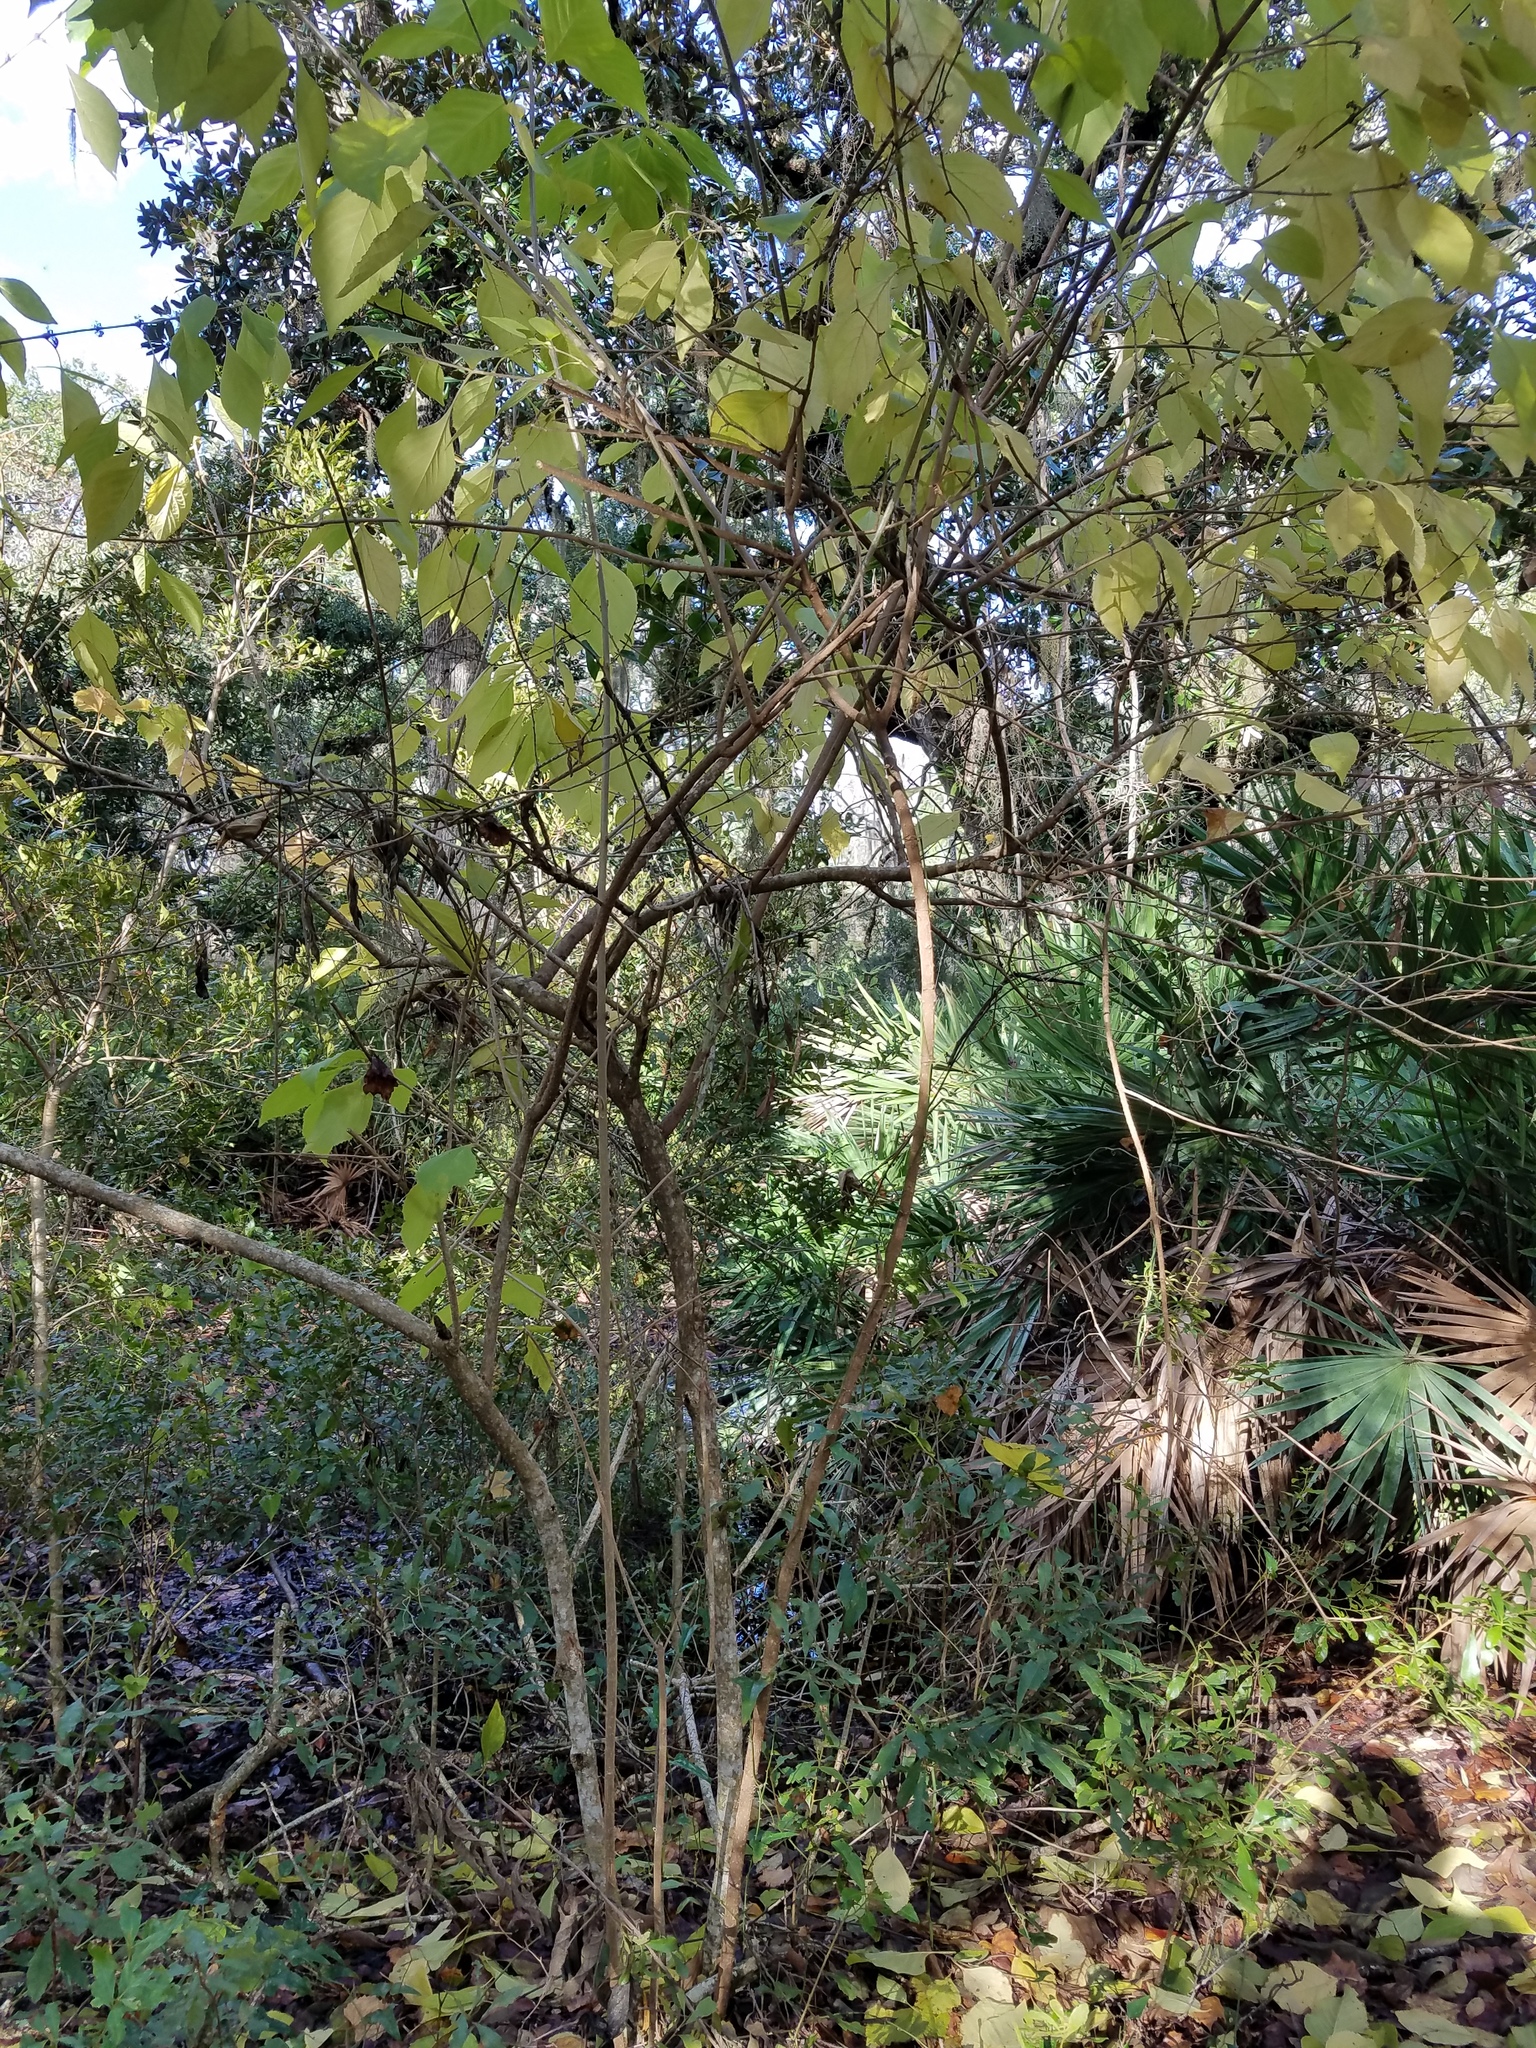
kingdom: Plantae
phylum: Tracheophyta
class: Magnoliopsida
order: Lamiales
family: Lamiaceae
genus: Callicarpa
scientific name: Callicarpa americana
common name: American beautyberry
